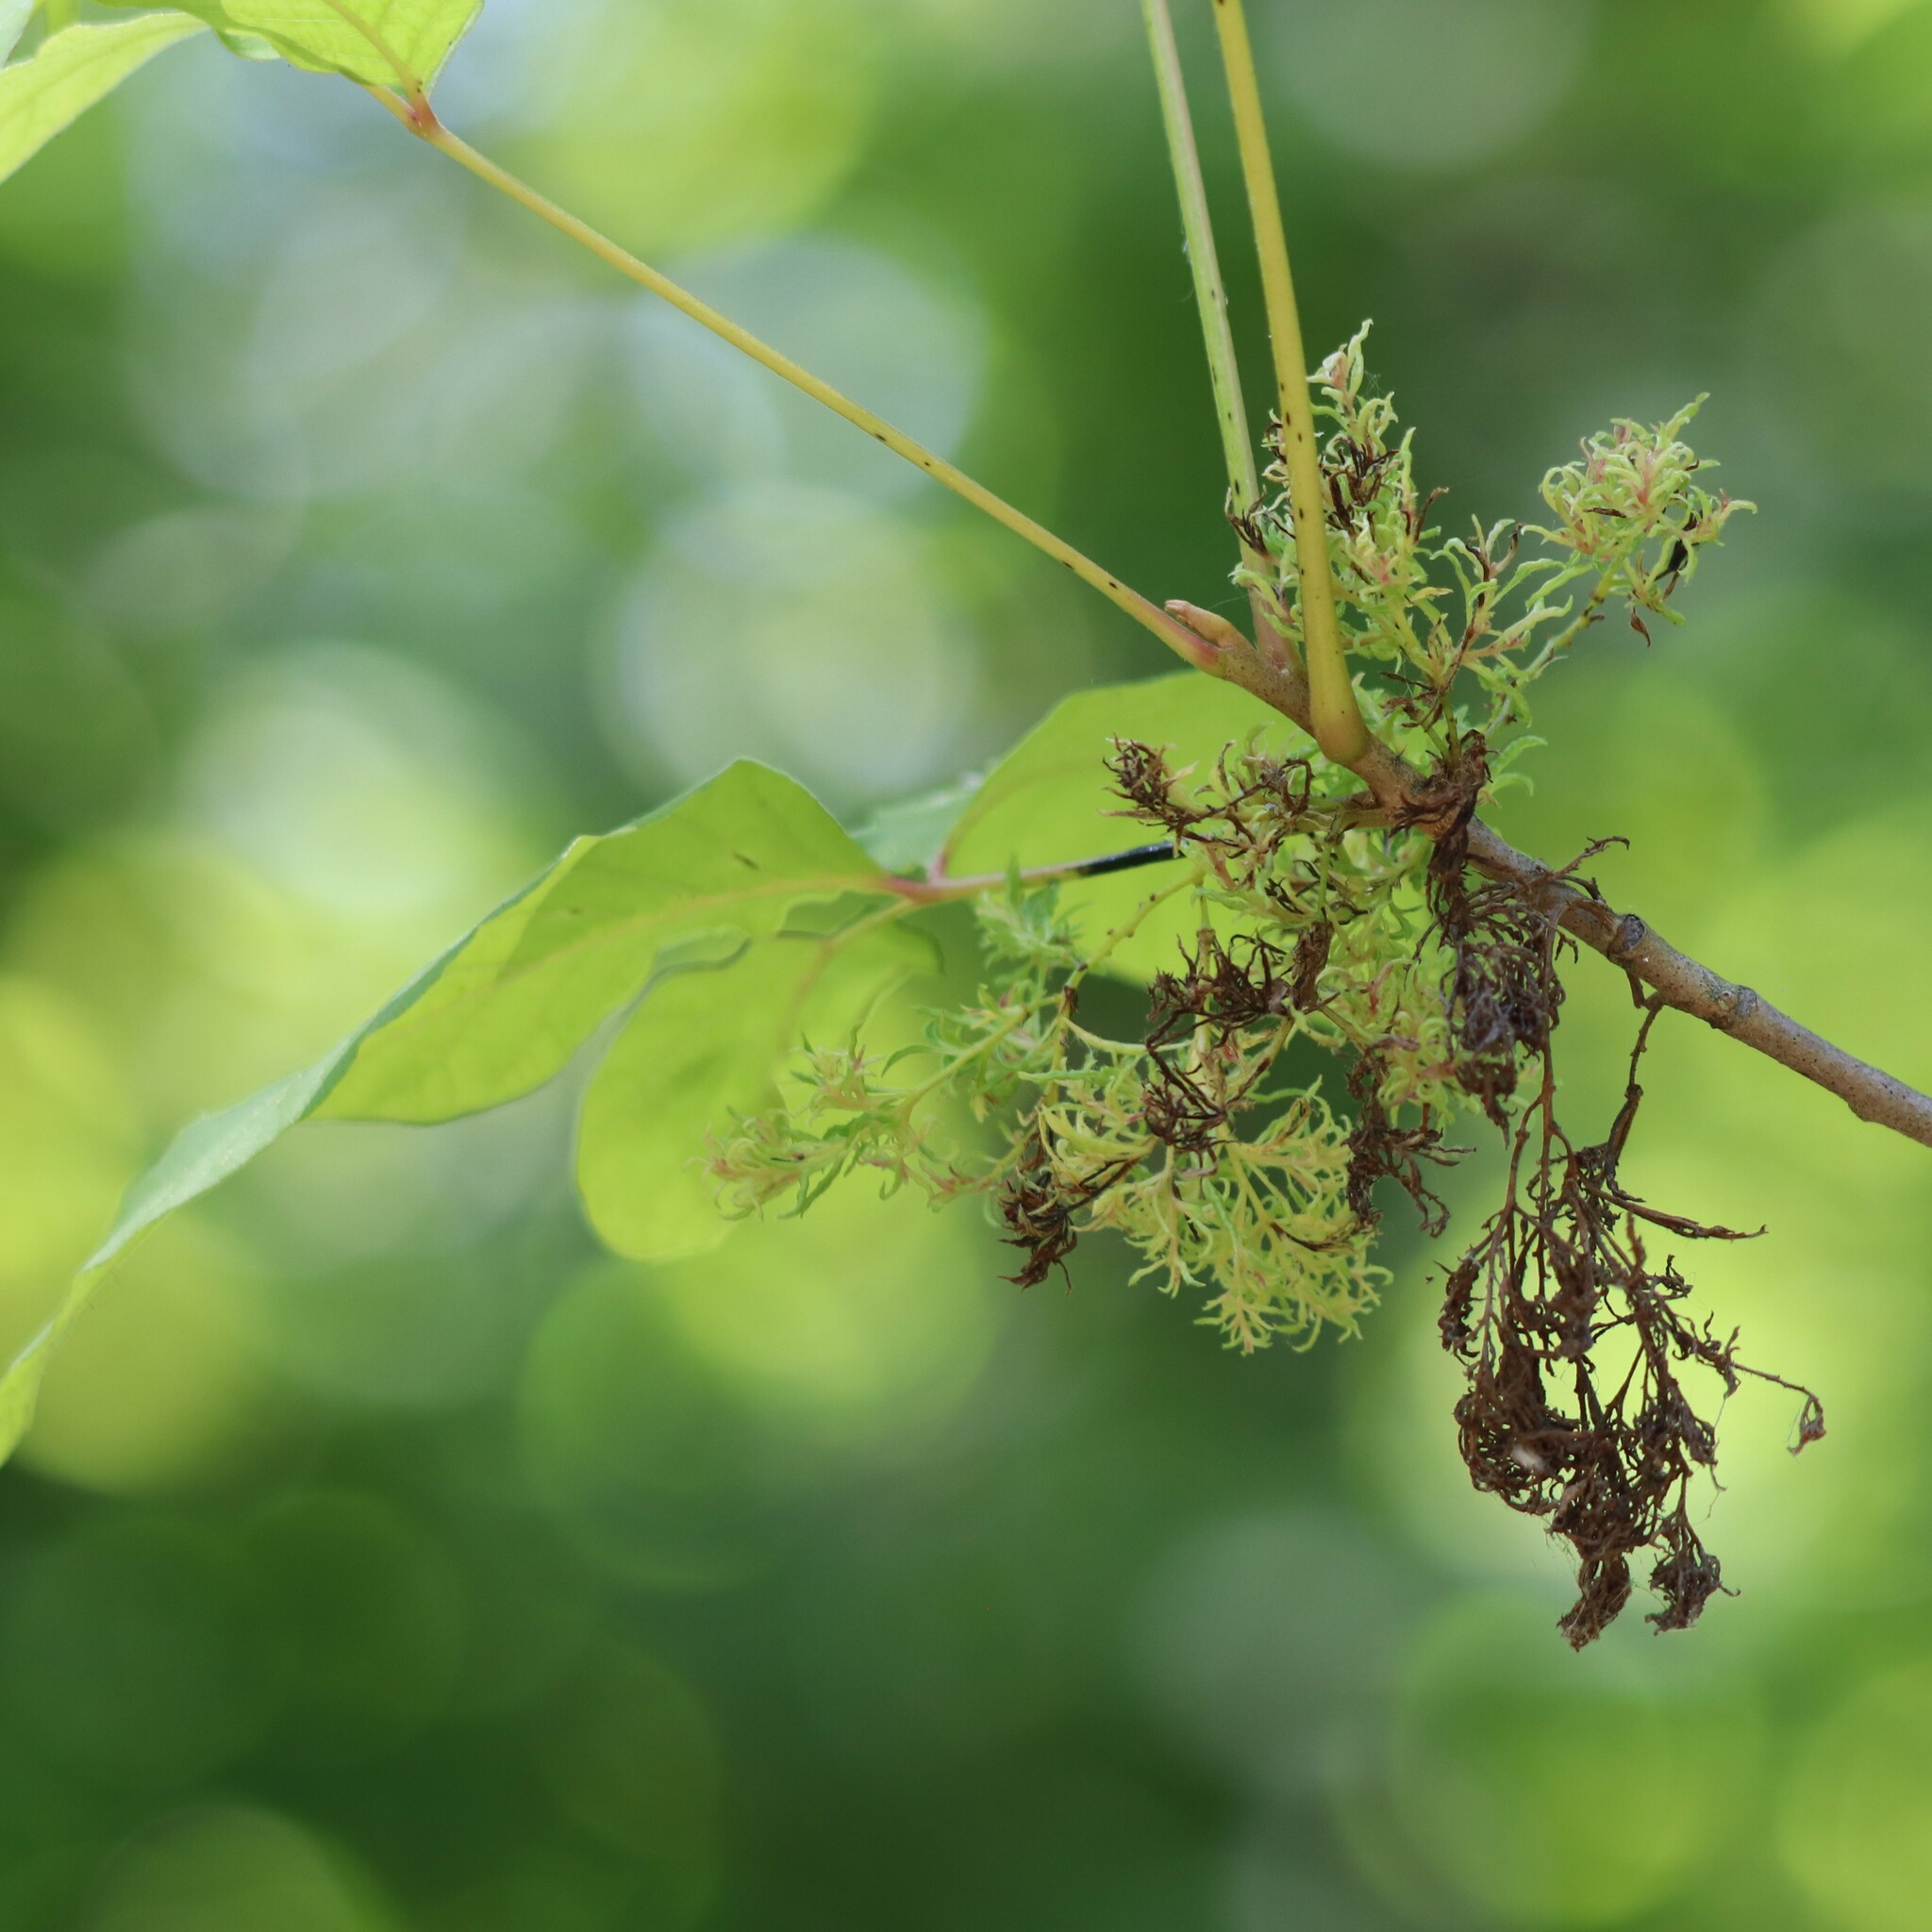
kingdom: Animalia
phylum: Arthropoda
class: Arachnida
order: Trombidiformes
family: Eriophyidae
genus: Eriophyes
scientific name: Eriophyes
